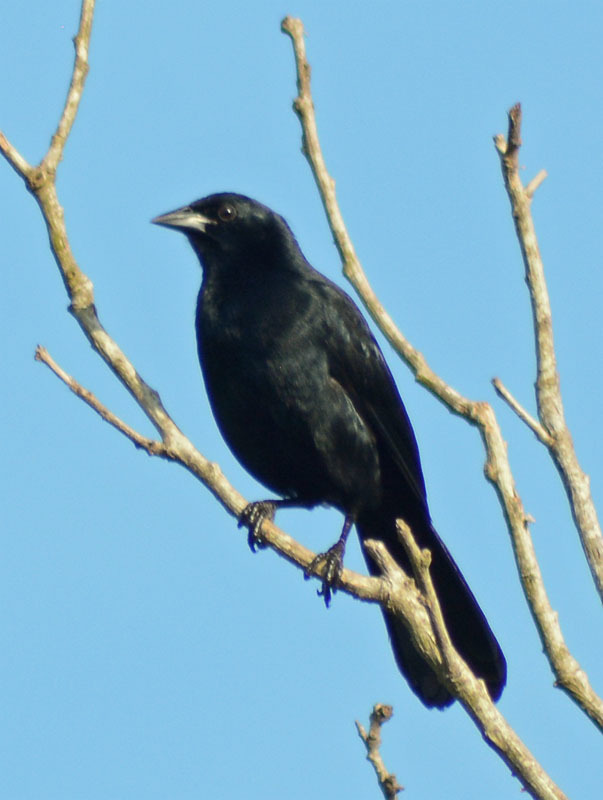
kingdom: Animalia
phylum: Chordata
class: Aves
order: Passeriformes
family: Icteridae
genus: Dives
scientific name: Dives dives
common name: Melodious blackbird
